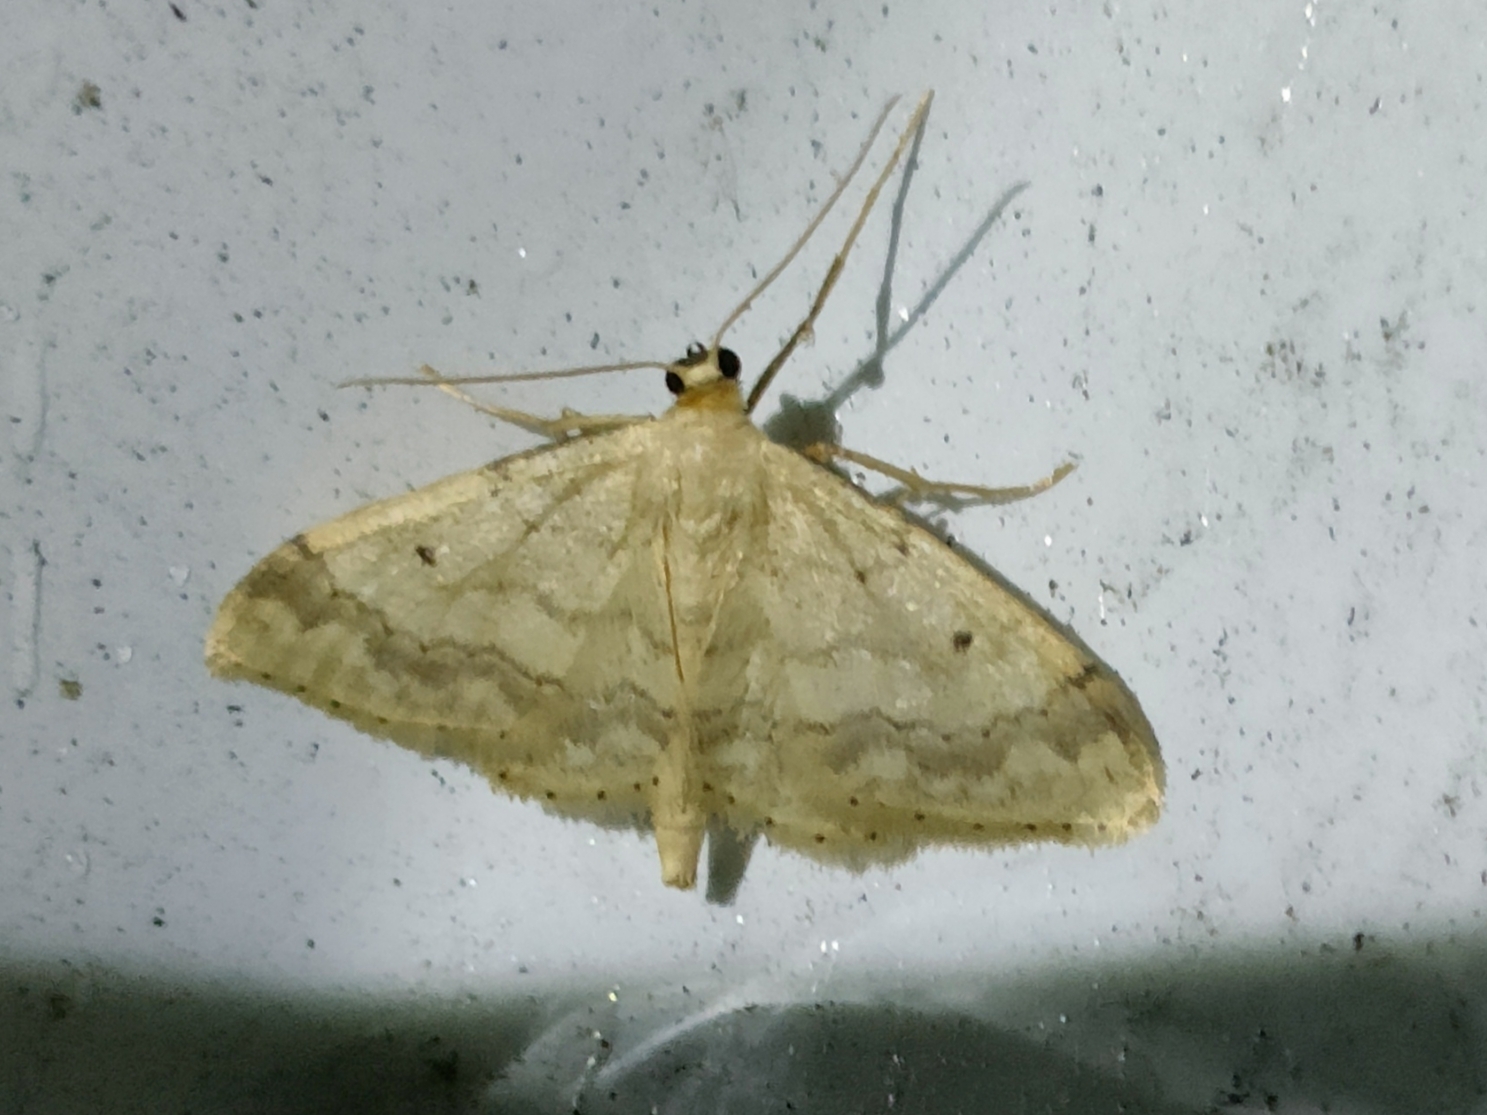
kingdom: Animalia
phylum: Arthropoda
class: Insecta
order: Lepidoptera
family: Geometridae
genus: Idaea
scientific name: Idaea biselata
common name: Small fan-footed wave
